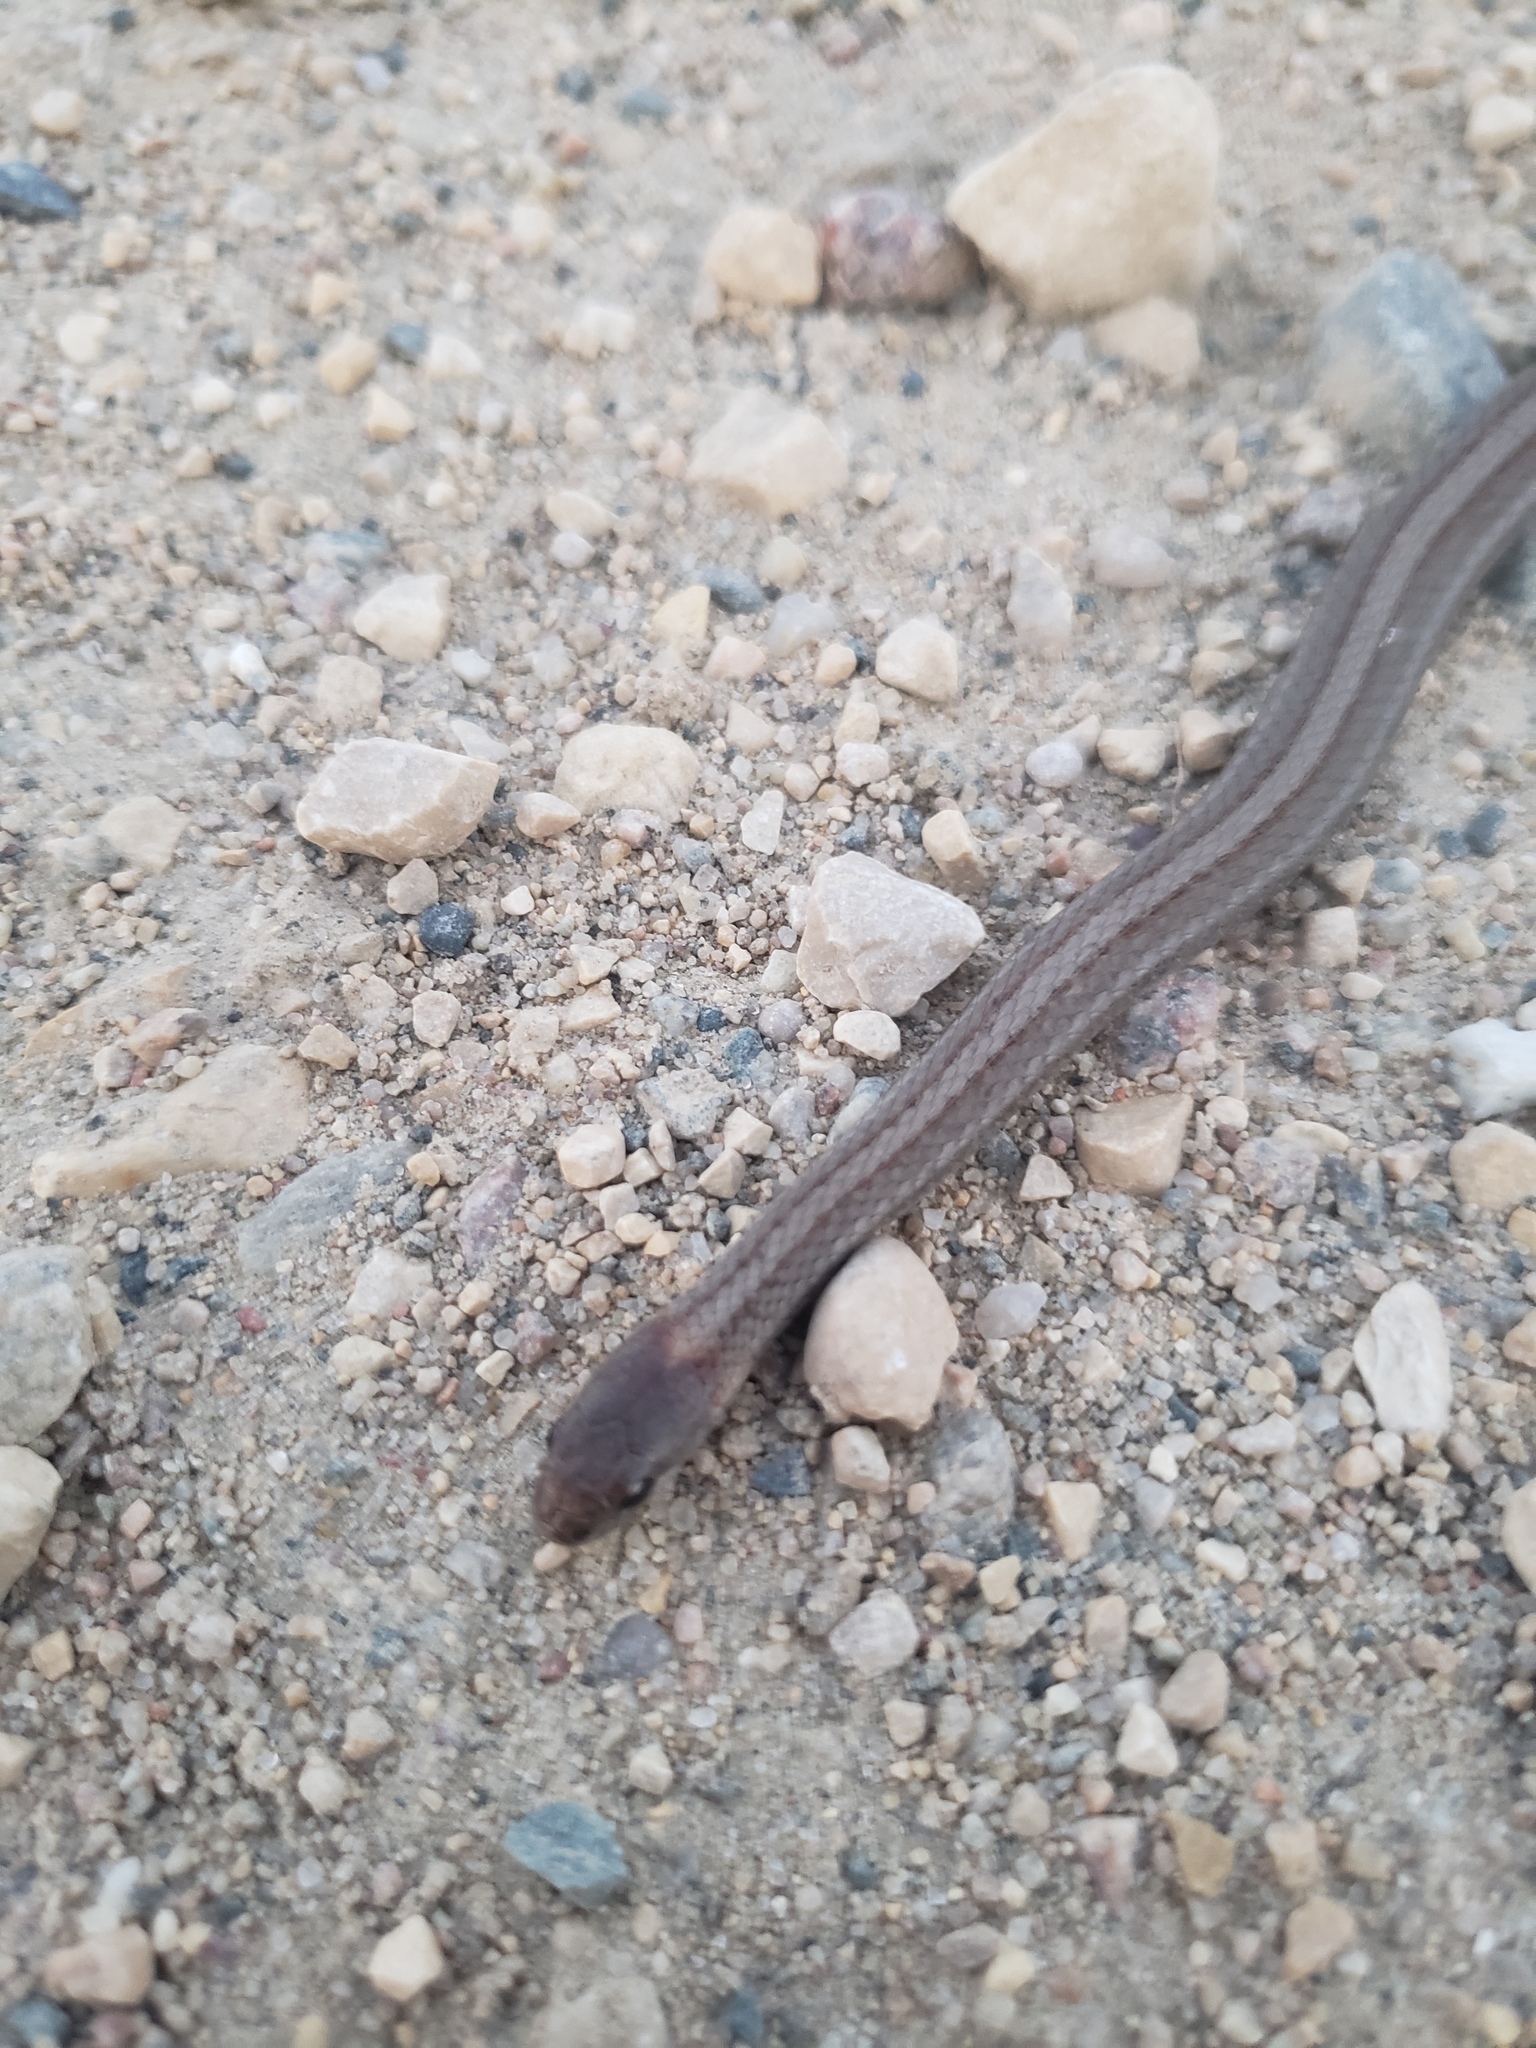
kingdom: Animalia
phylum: Chordata
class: Squamata
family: Colubridae
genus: Storeria
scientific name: Storeria occipitomaculata
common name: Redbelly snake
